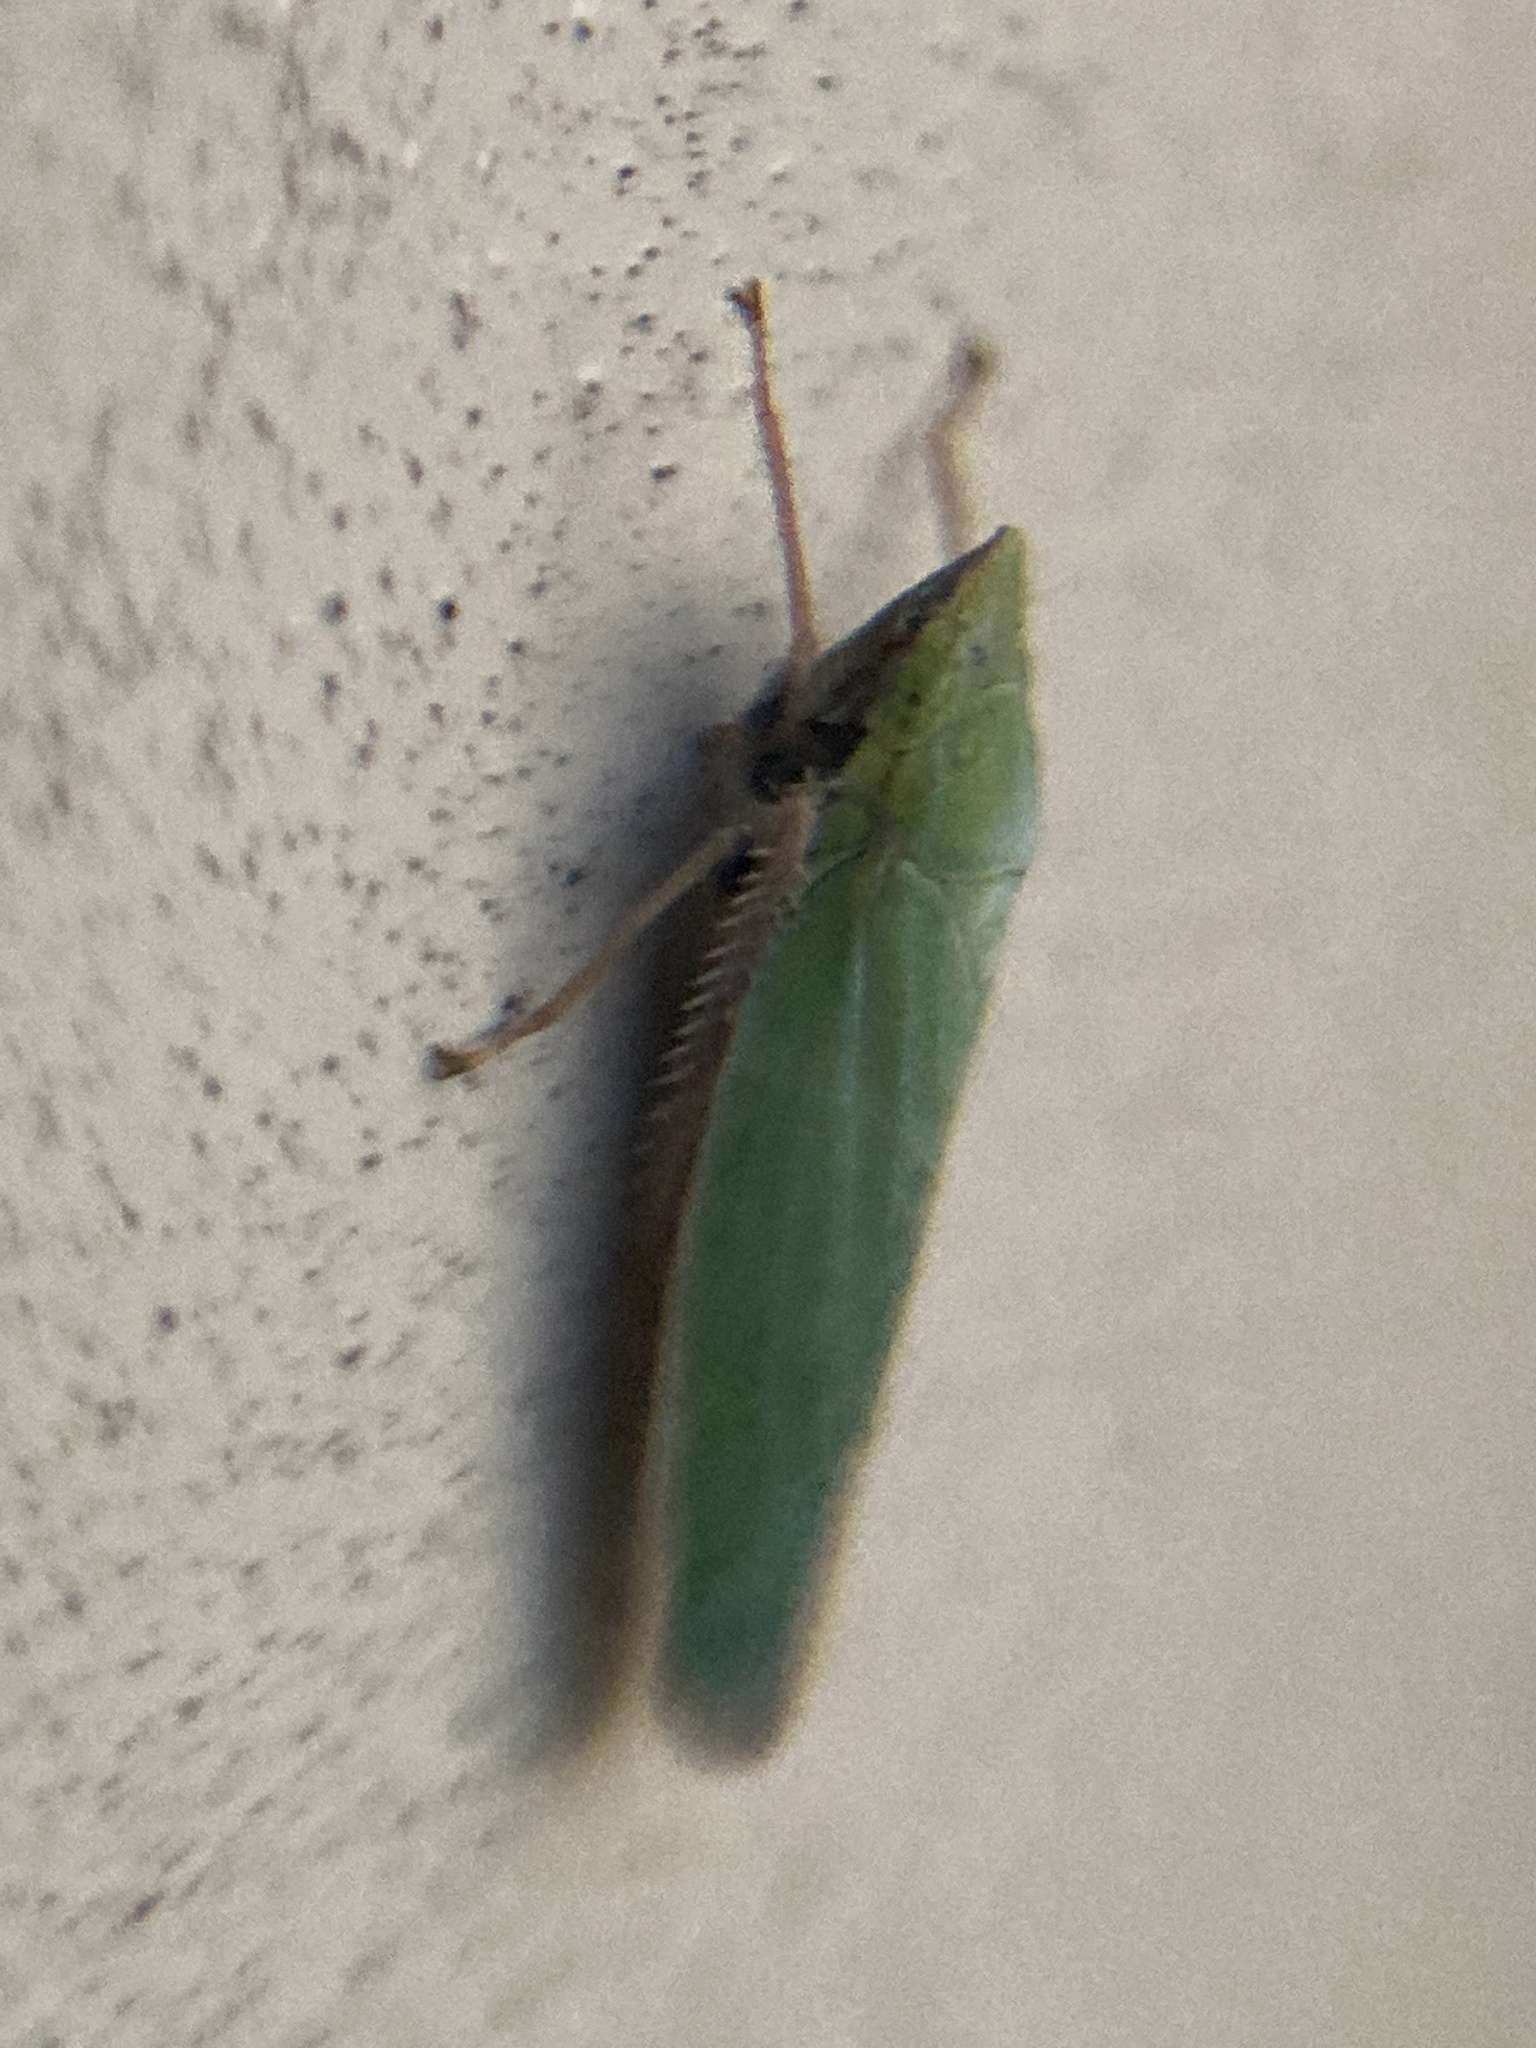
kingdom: Animalia
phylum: Arthropoda
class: Insecta
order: Hemiptera
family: Cicadellidae
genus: Draeculacephala
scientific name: Draeculacephala robinsoni
